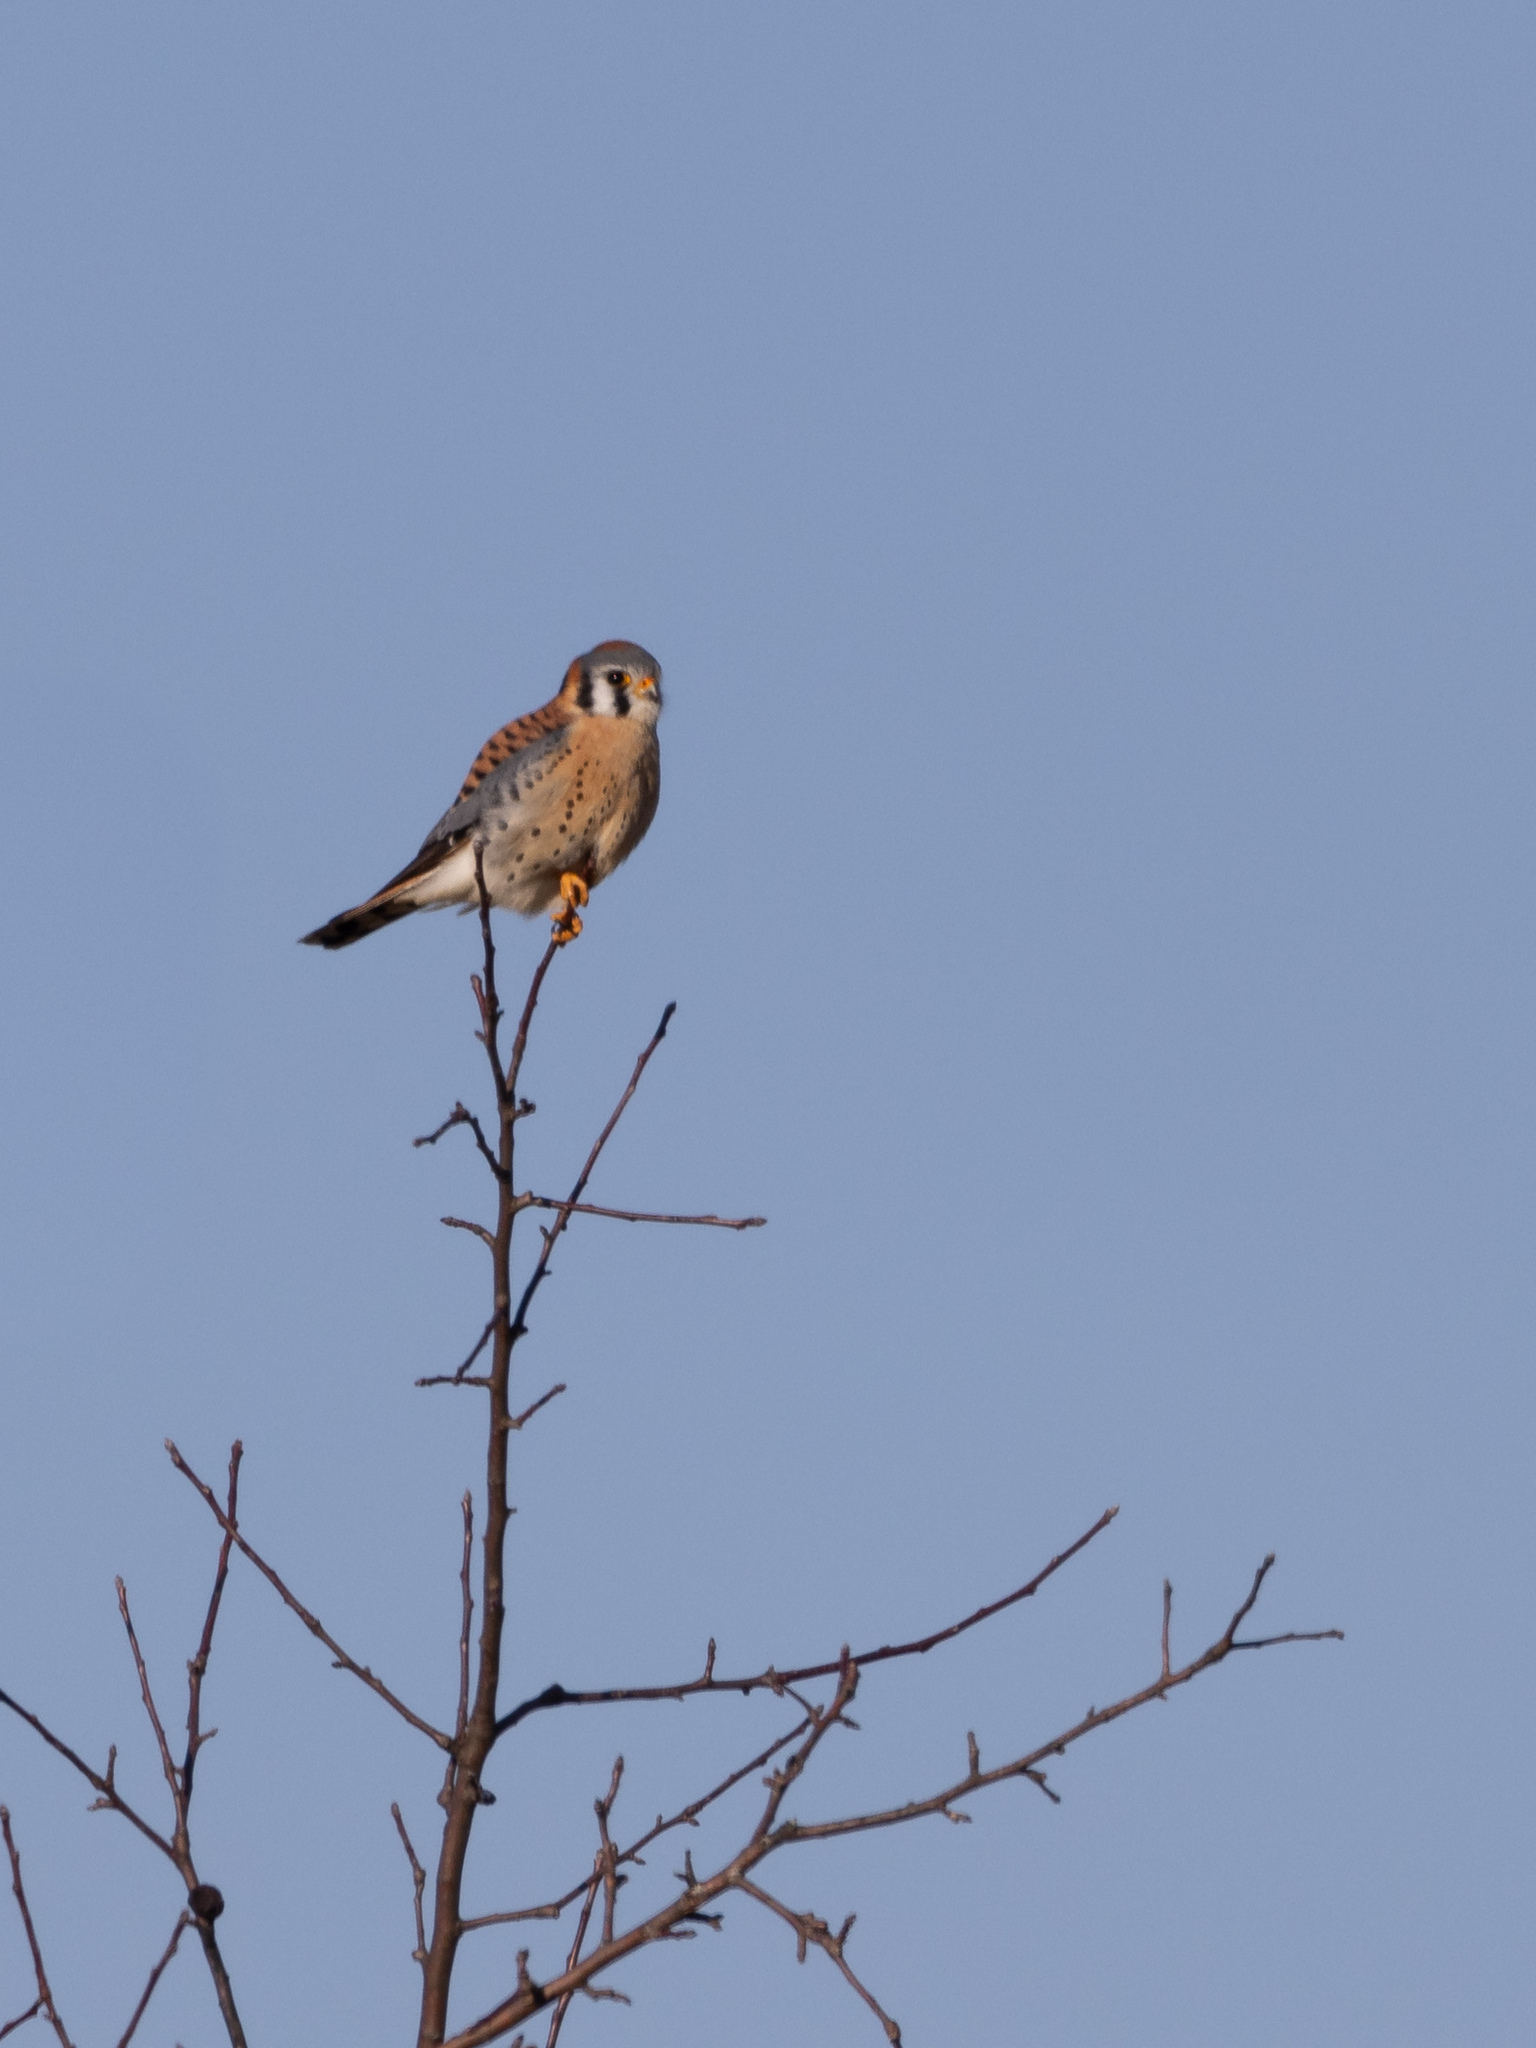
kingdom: Animalia
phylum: Chordata
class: Aves
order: Falconiformes
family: Falconidae
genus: Falco
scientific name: Falco sparverius
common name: American kestrel
